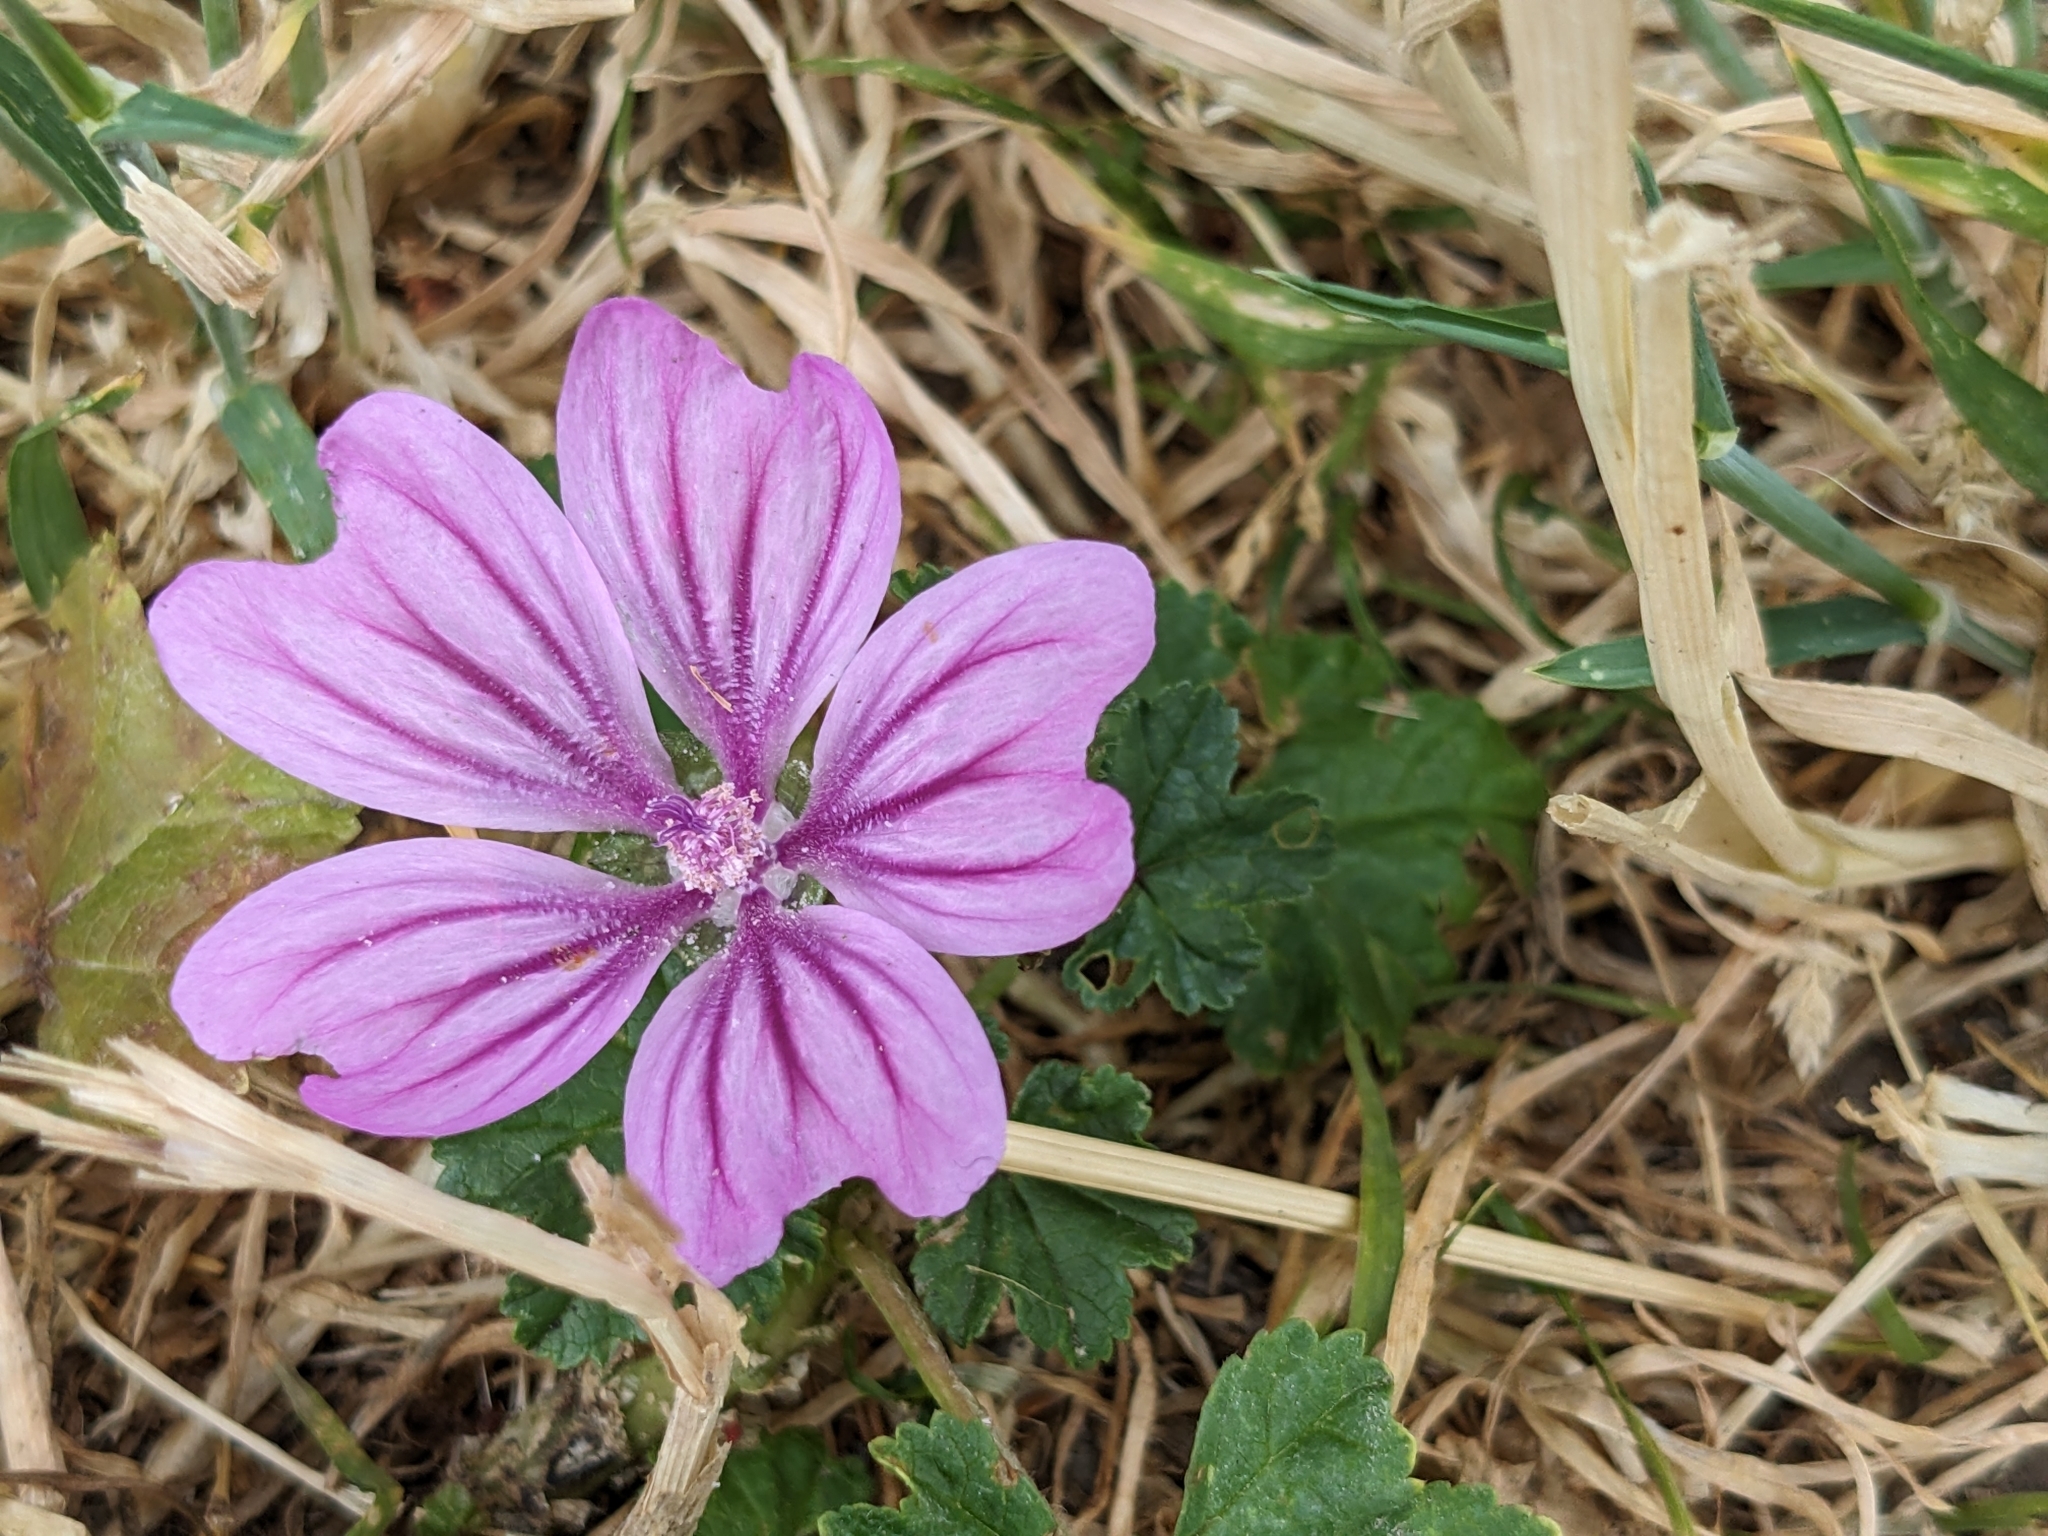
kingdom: Plantae
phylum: Tracheophyta
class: Magnoliopsida
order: Malvales
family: Malvaceae
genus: Malva
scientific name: Malva sylvestris
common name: Common mallow
